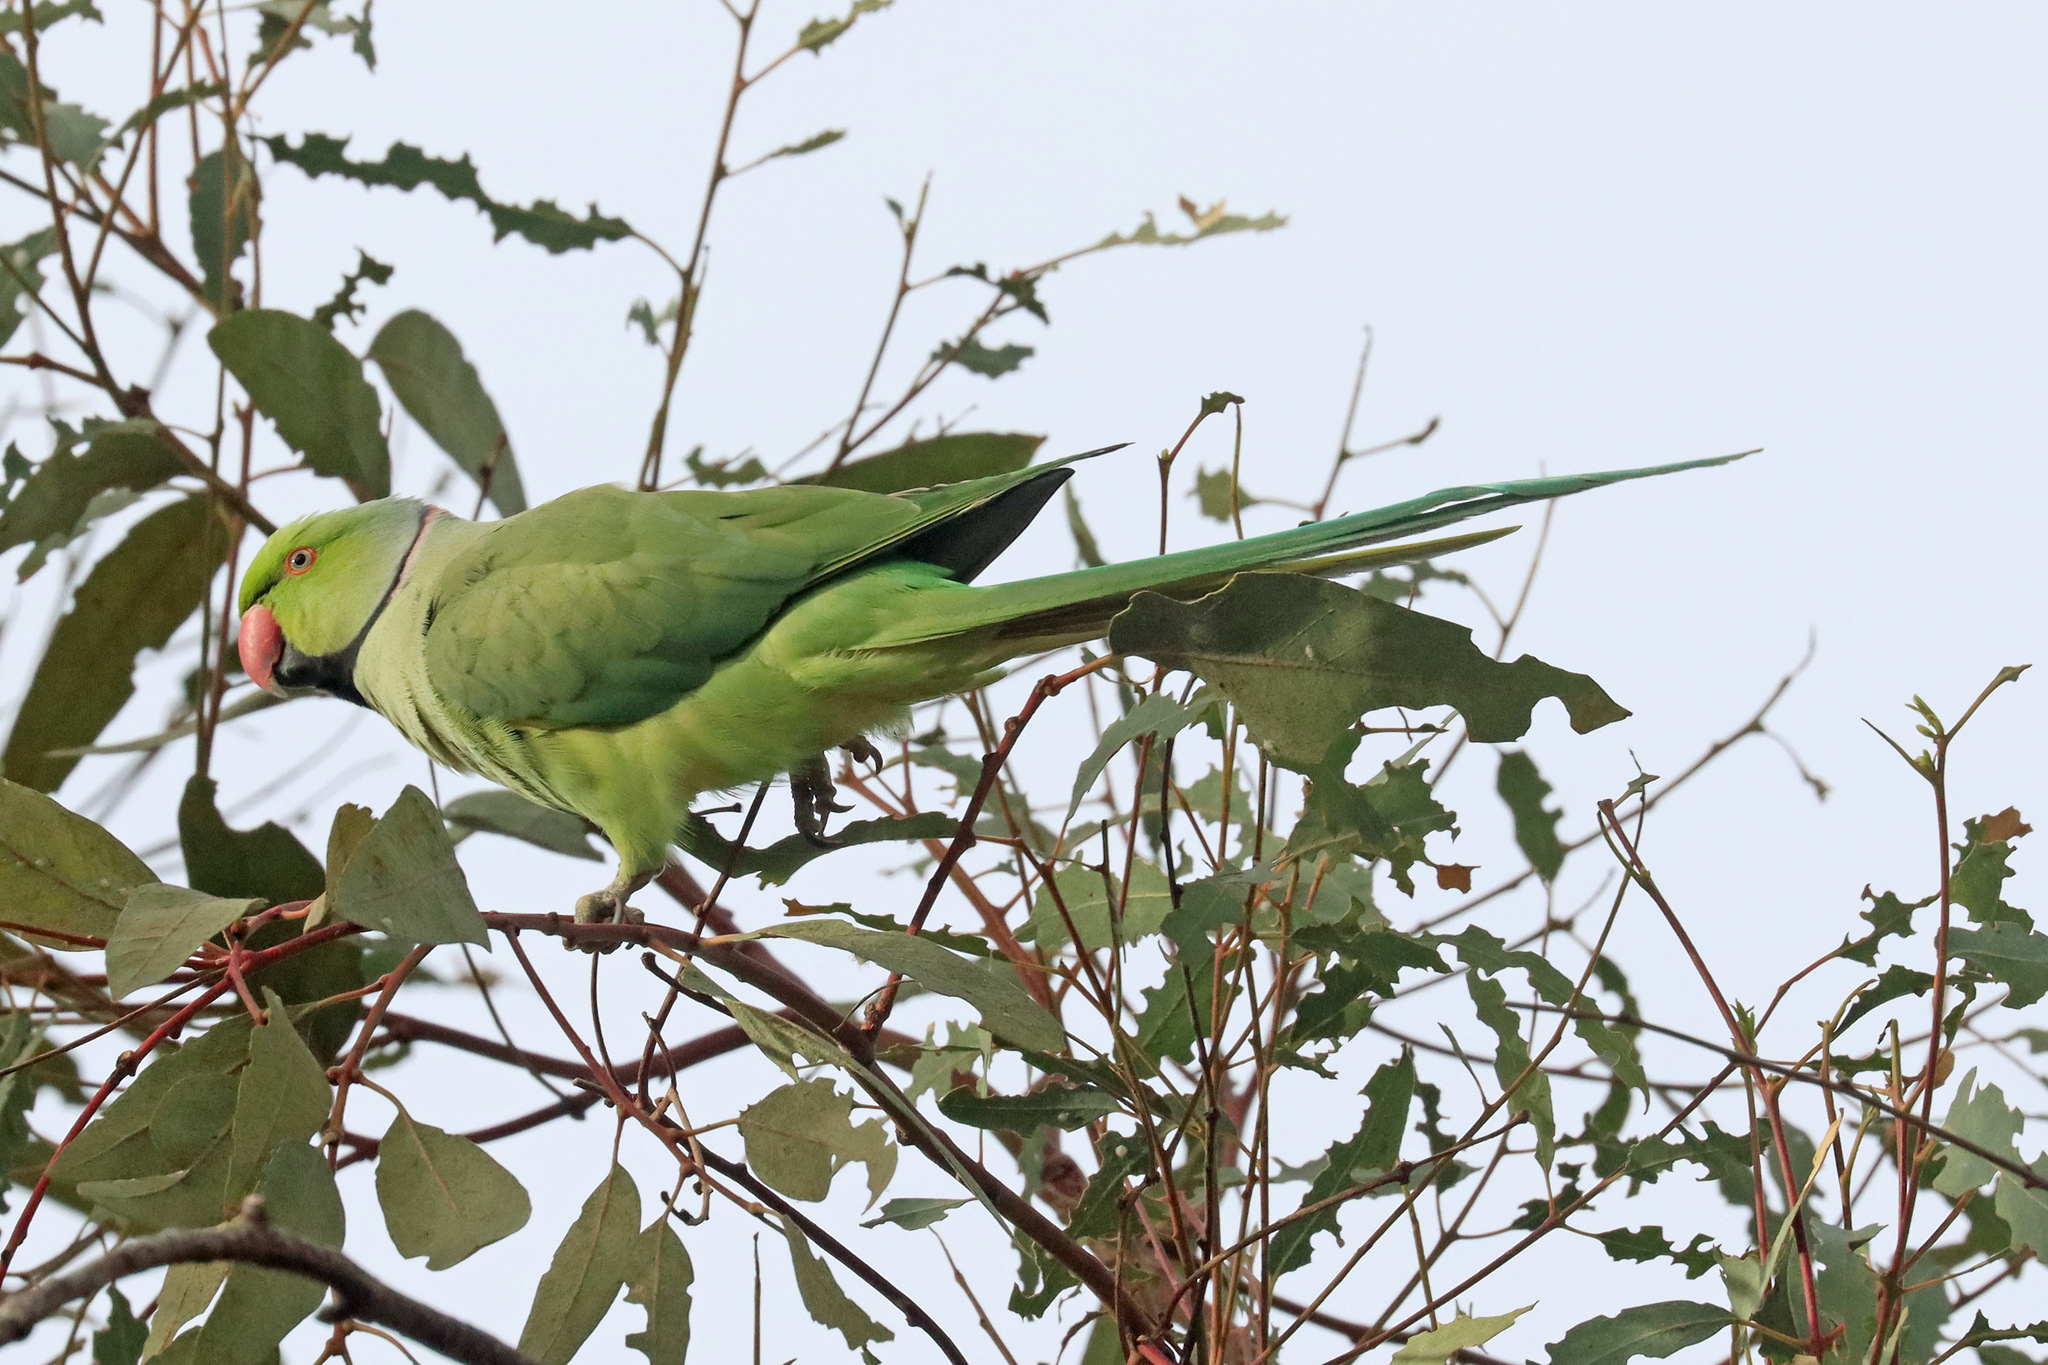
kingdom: Animalia
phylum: Chordata
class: Aves
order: Psittaciformes
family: Psittacidae
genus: Psittacula
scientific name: Psittacula krameri
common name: Rose-ringed parakeet
